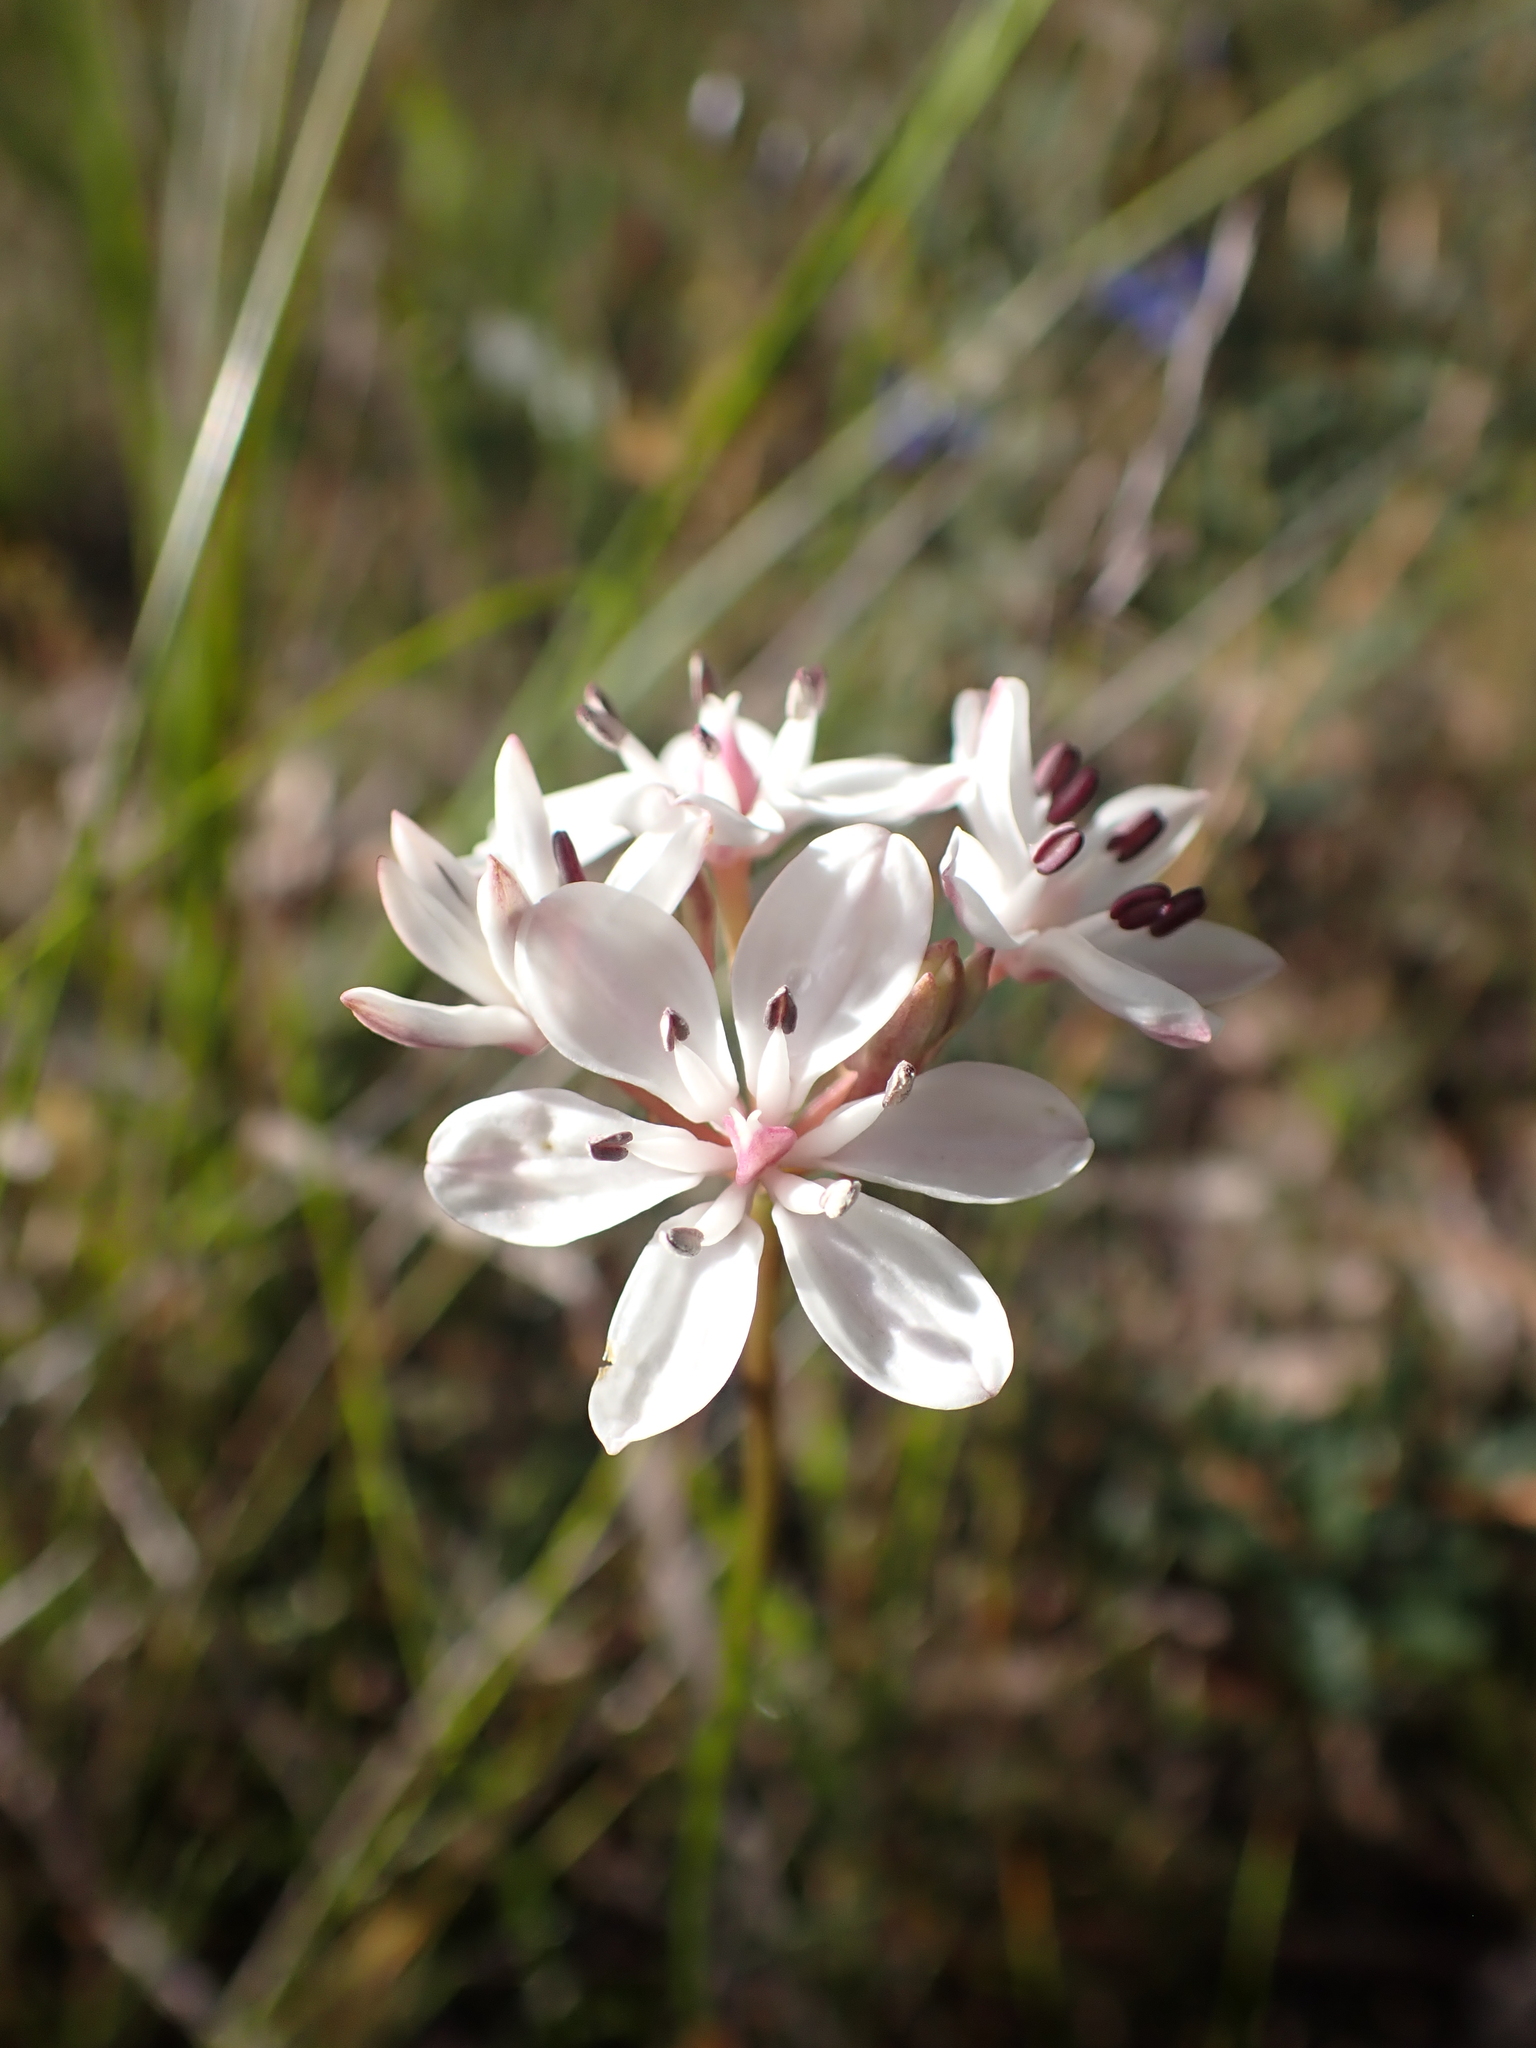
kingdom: Plantae
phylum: Tracheophyta
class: Liliopsida
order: Liliales
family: Colchicaceae
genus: Burchardia
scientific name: Burchardia umbellata
